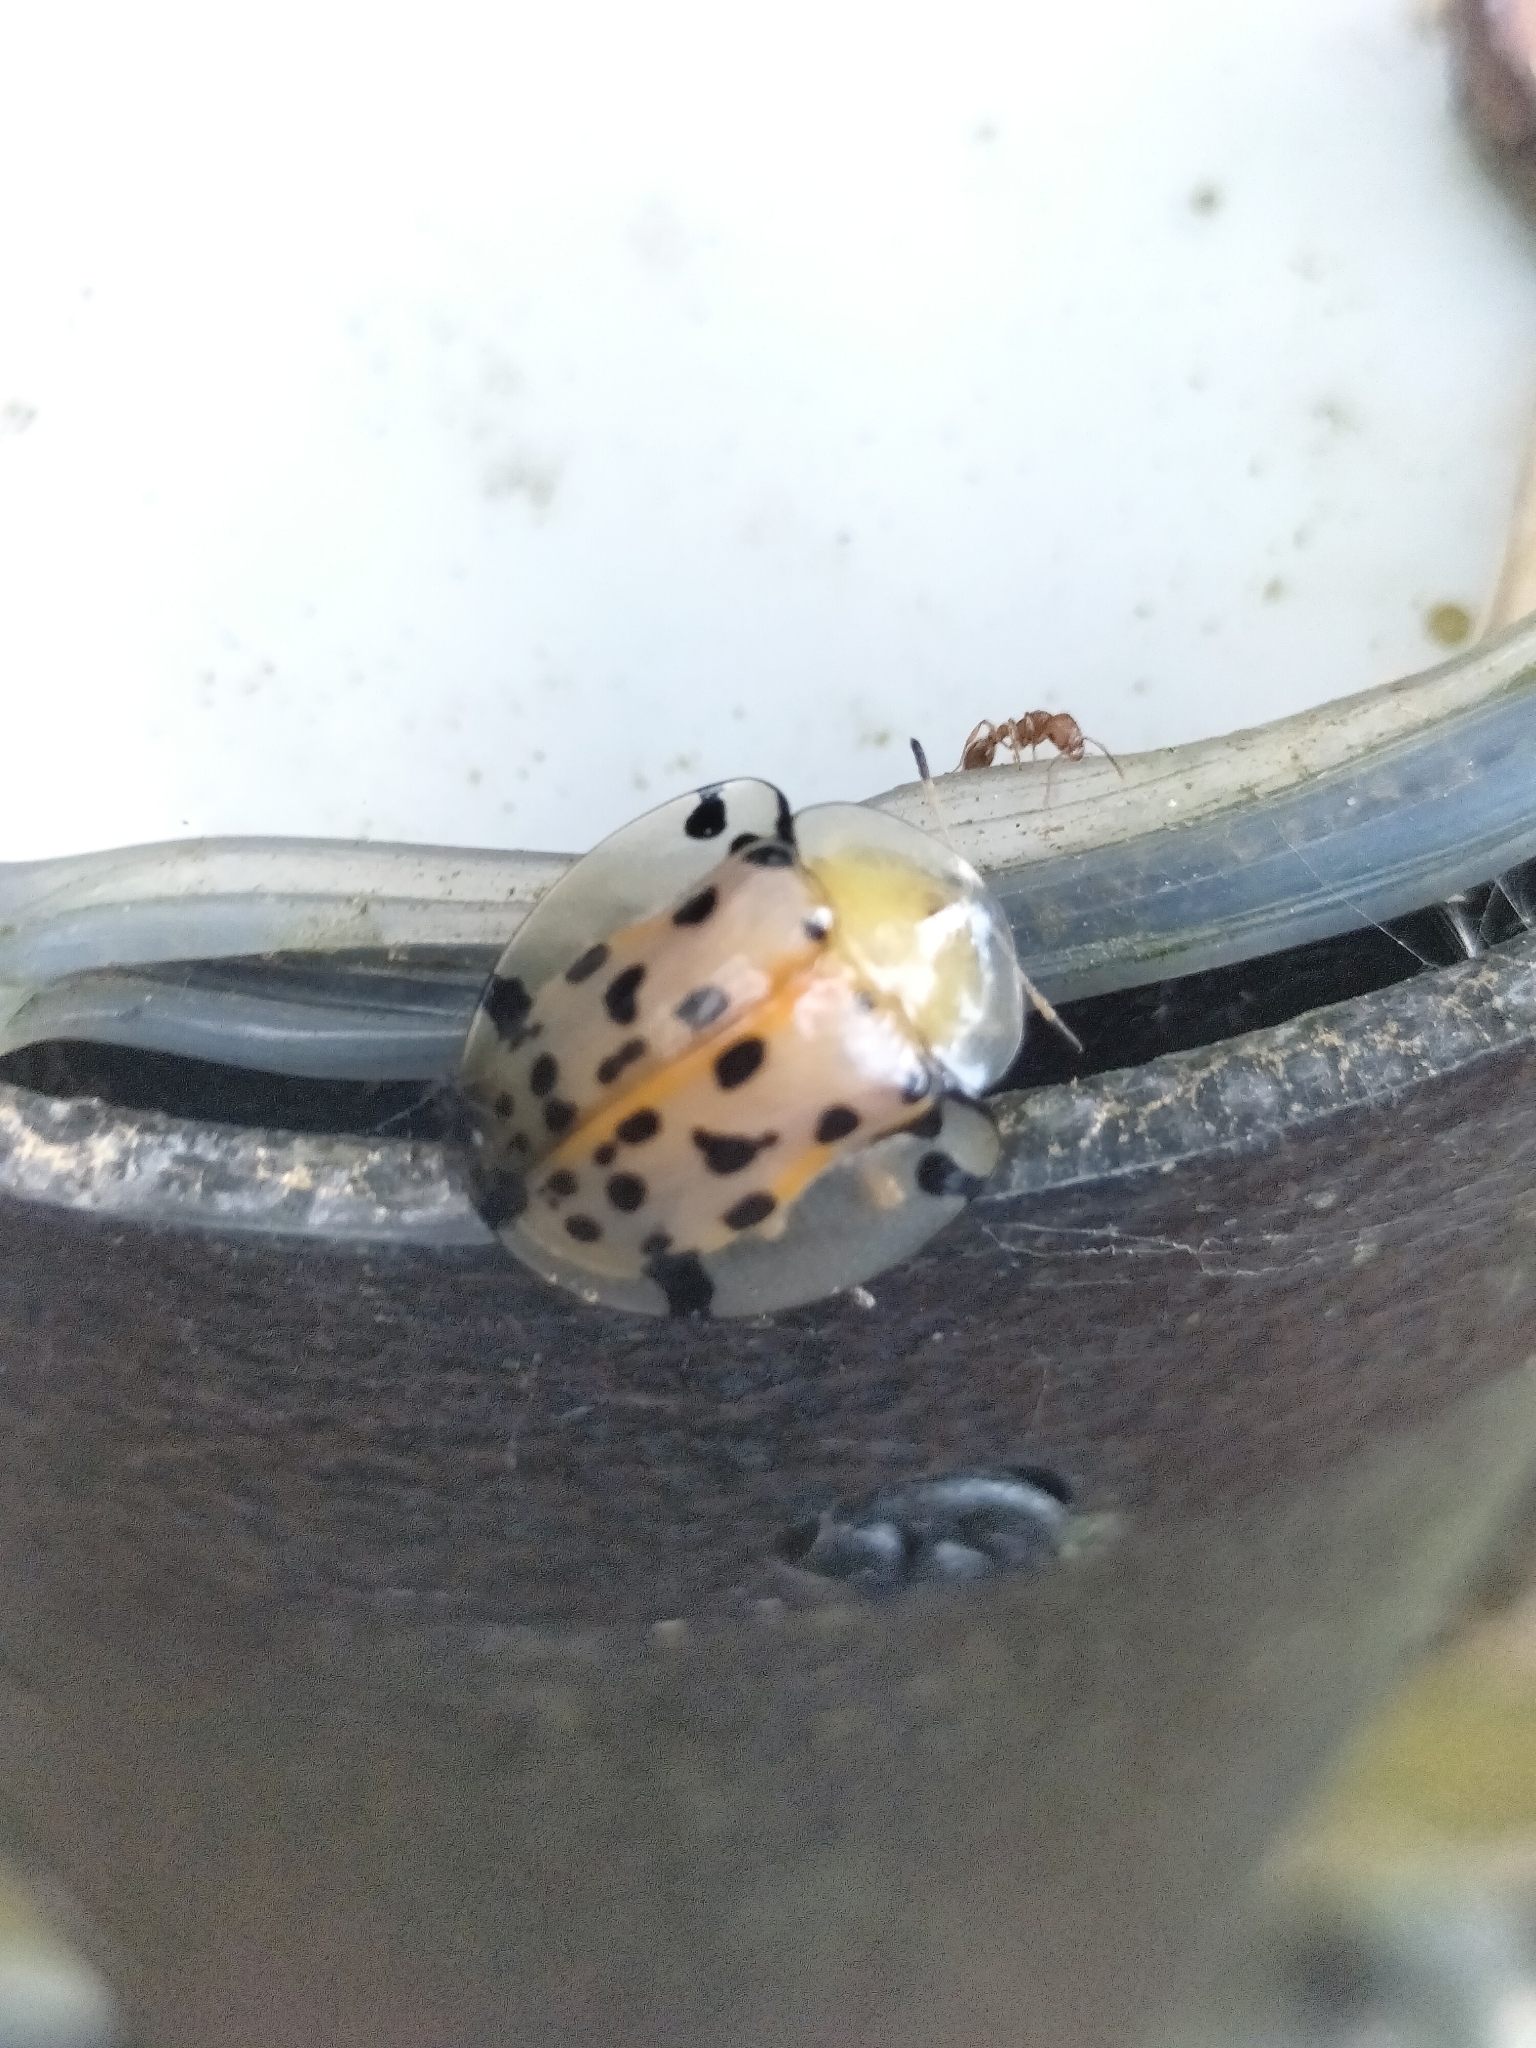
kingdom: Animalia
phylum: Arthropoda
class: Insecta
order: Coleoptera
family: Chrysomelidae
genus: Aspidimorpha
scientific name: Aspidimorpha miliaris
